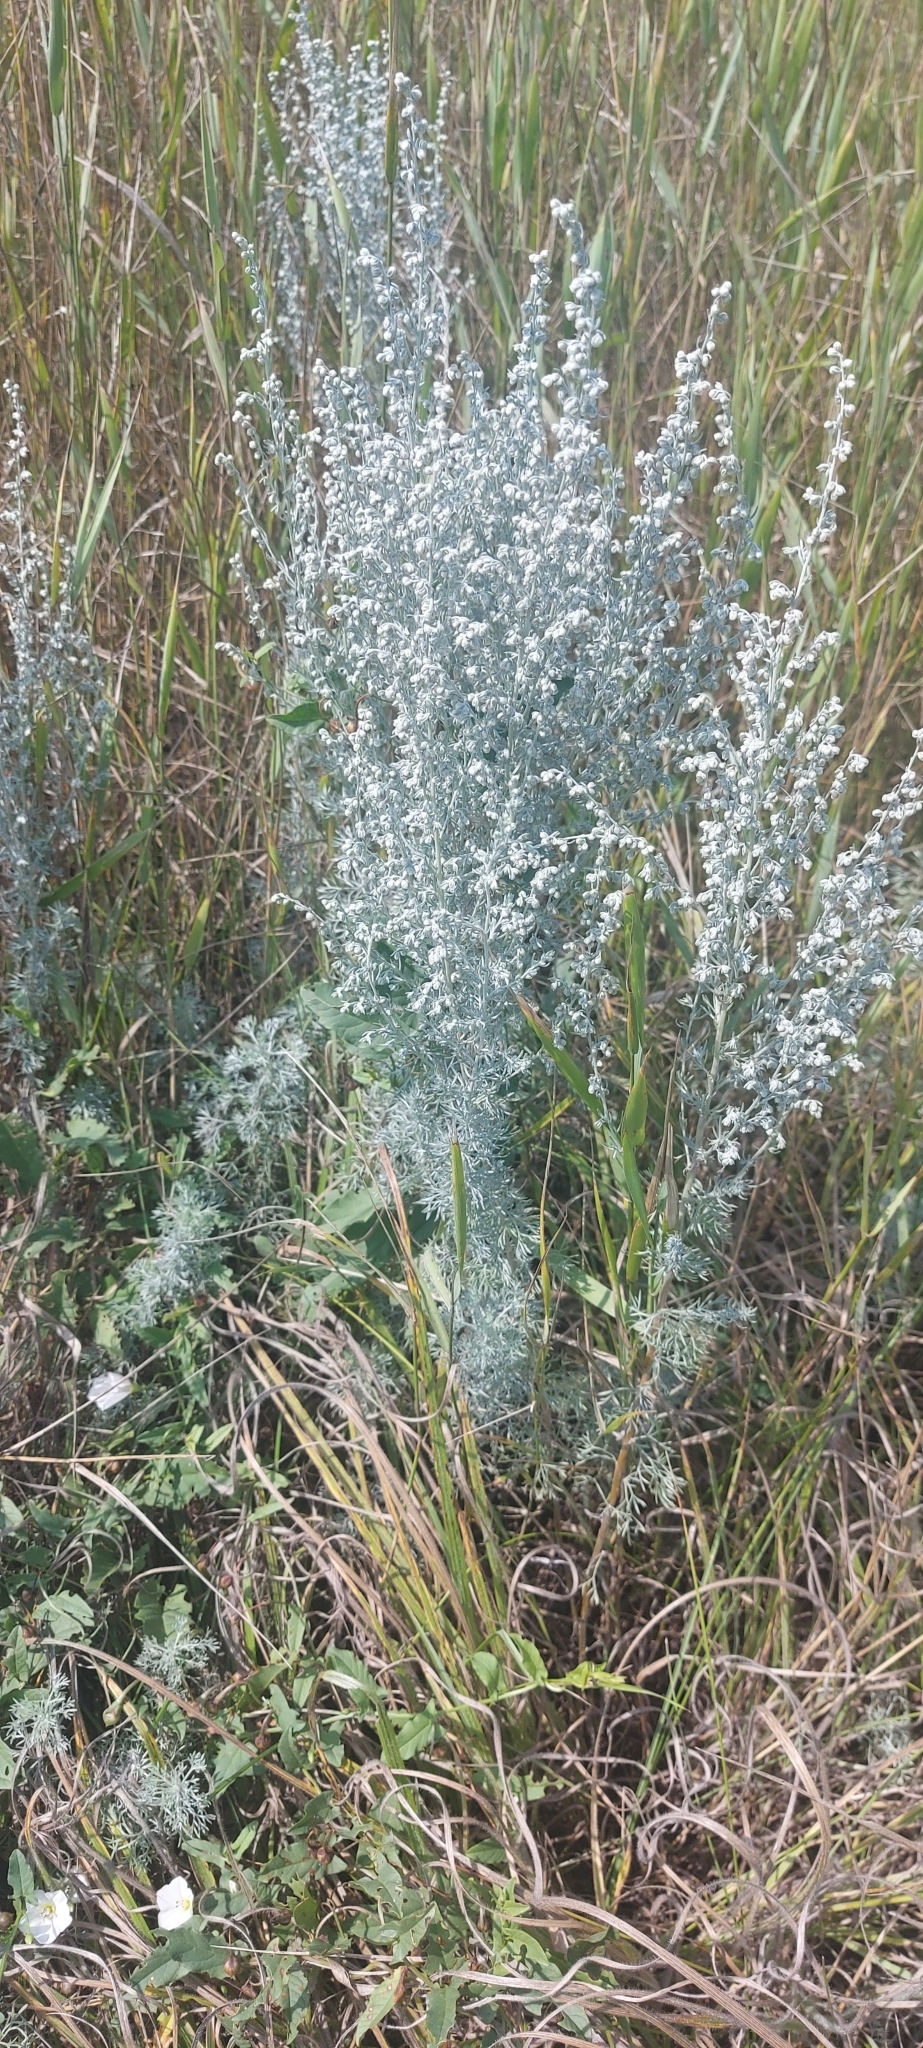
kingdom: Plantae
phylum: Tracheophyta
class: Magnoliopsida
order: Asterales
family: Asteraceae
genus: Artemisia
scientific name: Artemisia austriaca
